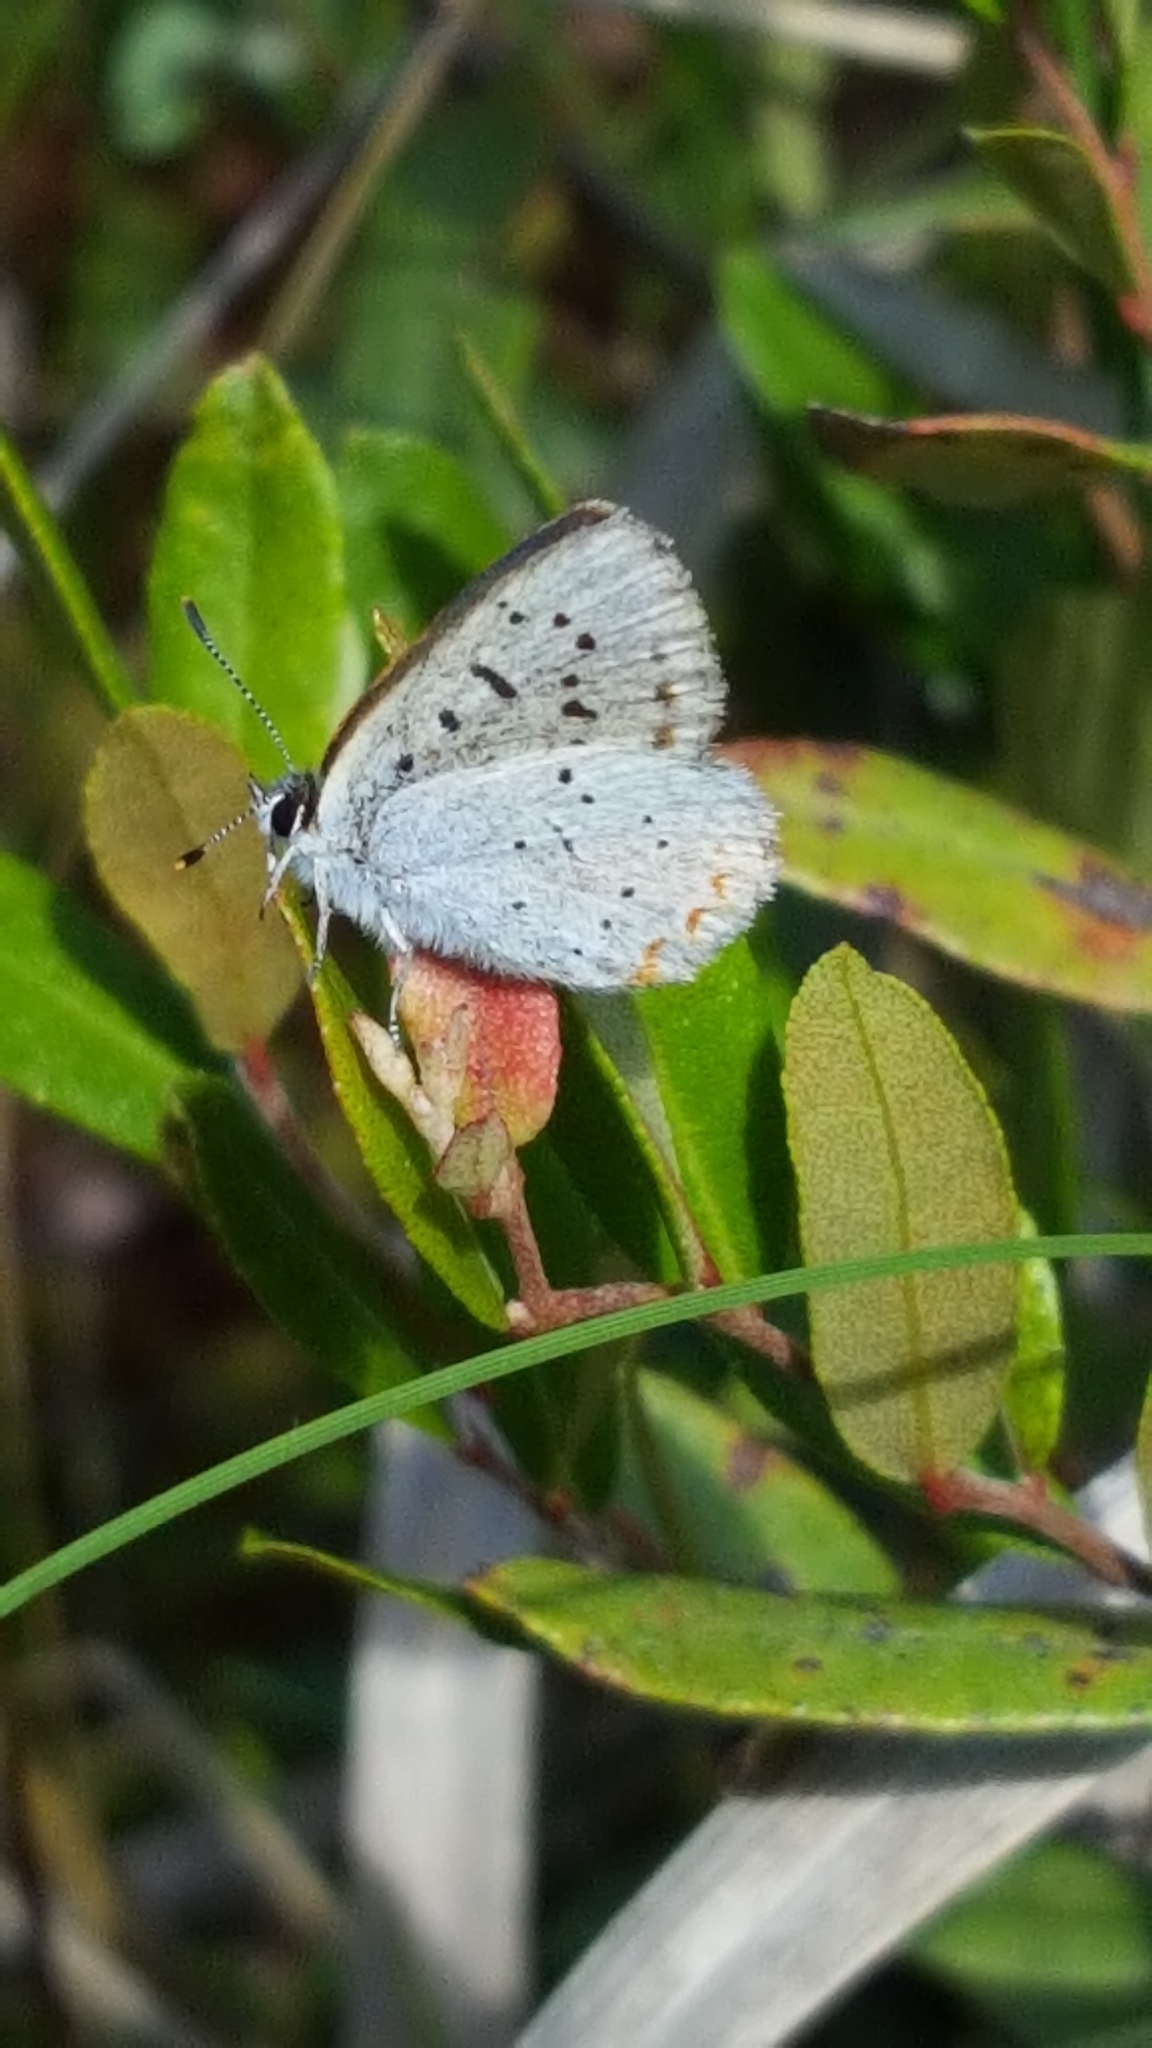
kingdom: Animalia
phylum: Arthropoda
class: Insecta
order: Lepidoptera
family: Lycaenidae
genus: Tharsalea
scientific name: Tharsalea epixanthe
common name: Bog copper
